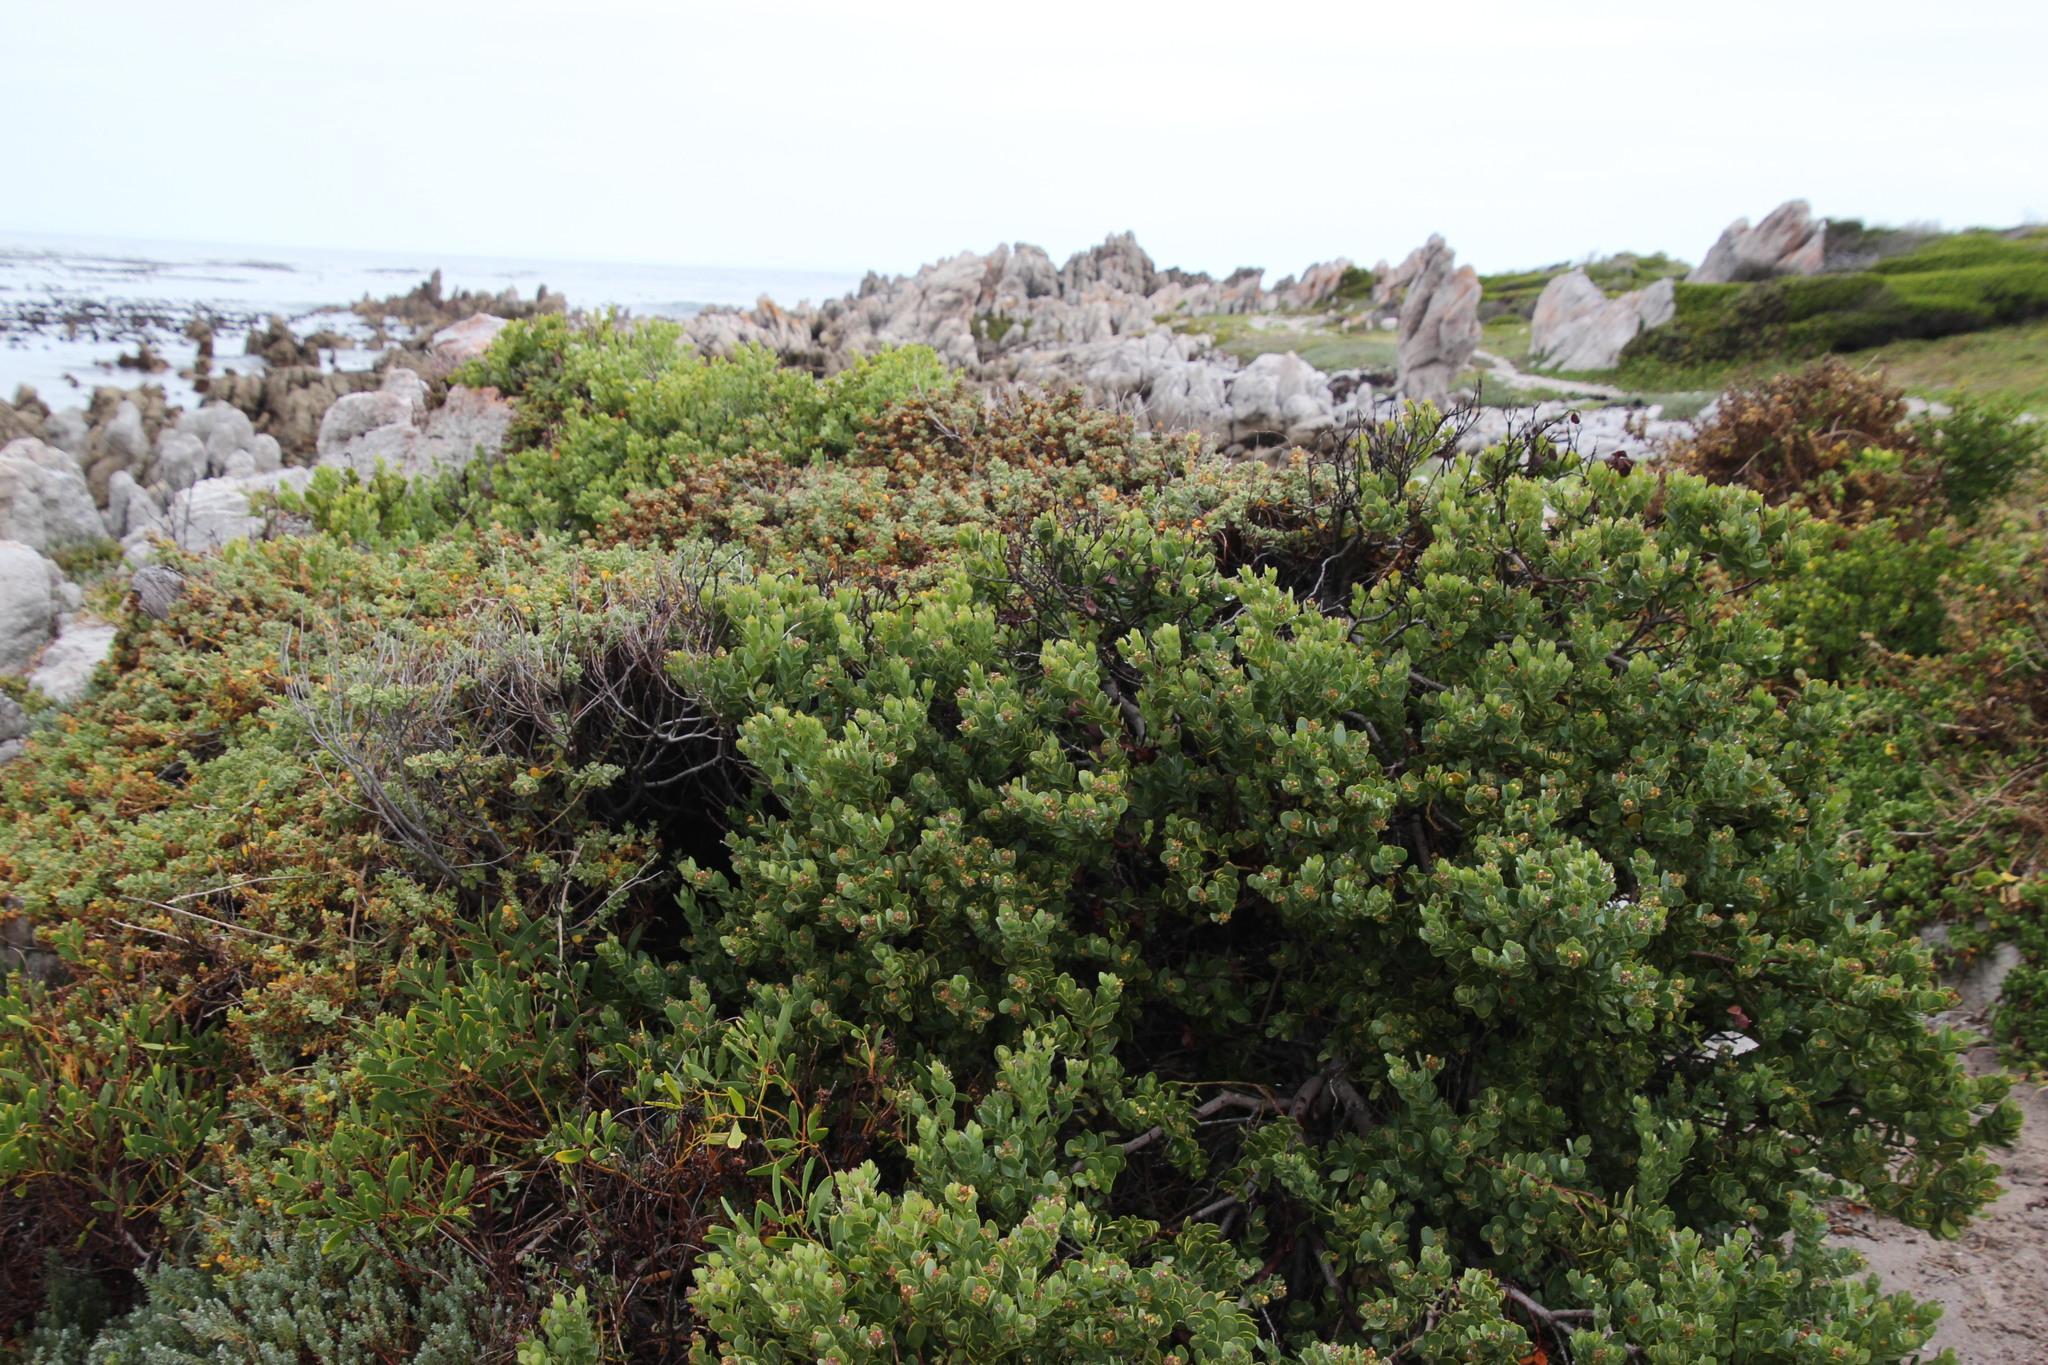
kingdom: Plantae
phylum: Tracheophyta
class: Magnoliopsida
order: Santalales
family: Santalaceae
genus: Osyris
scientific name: Osyris compressa
